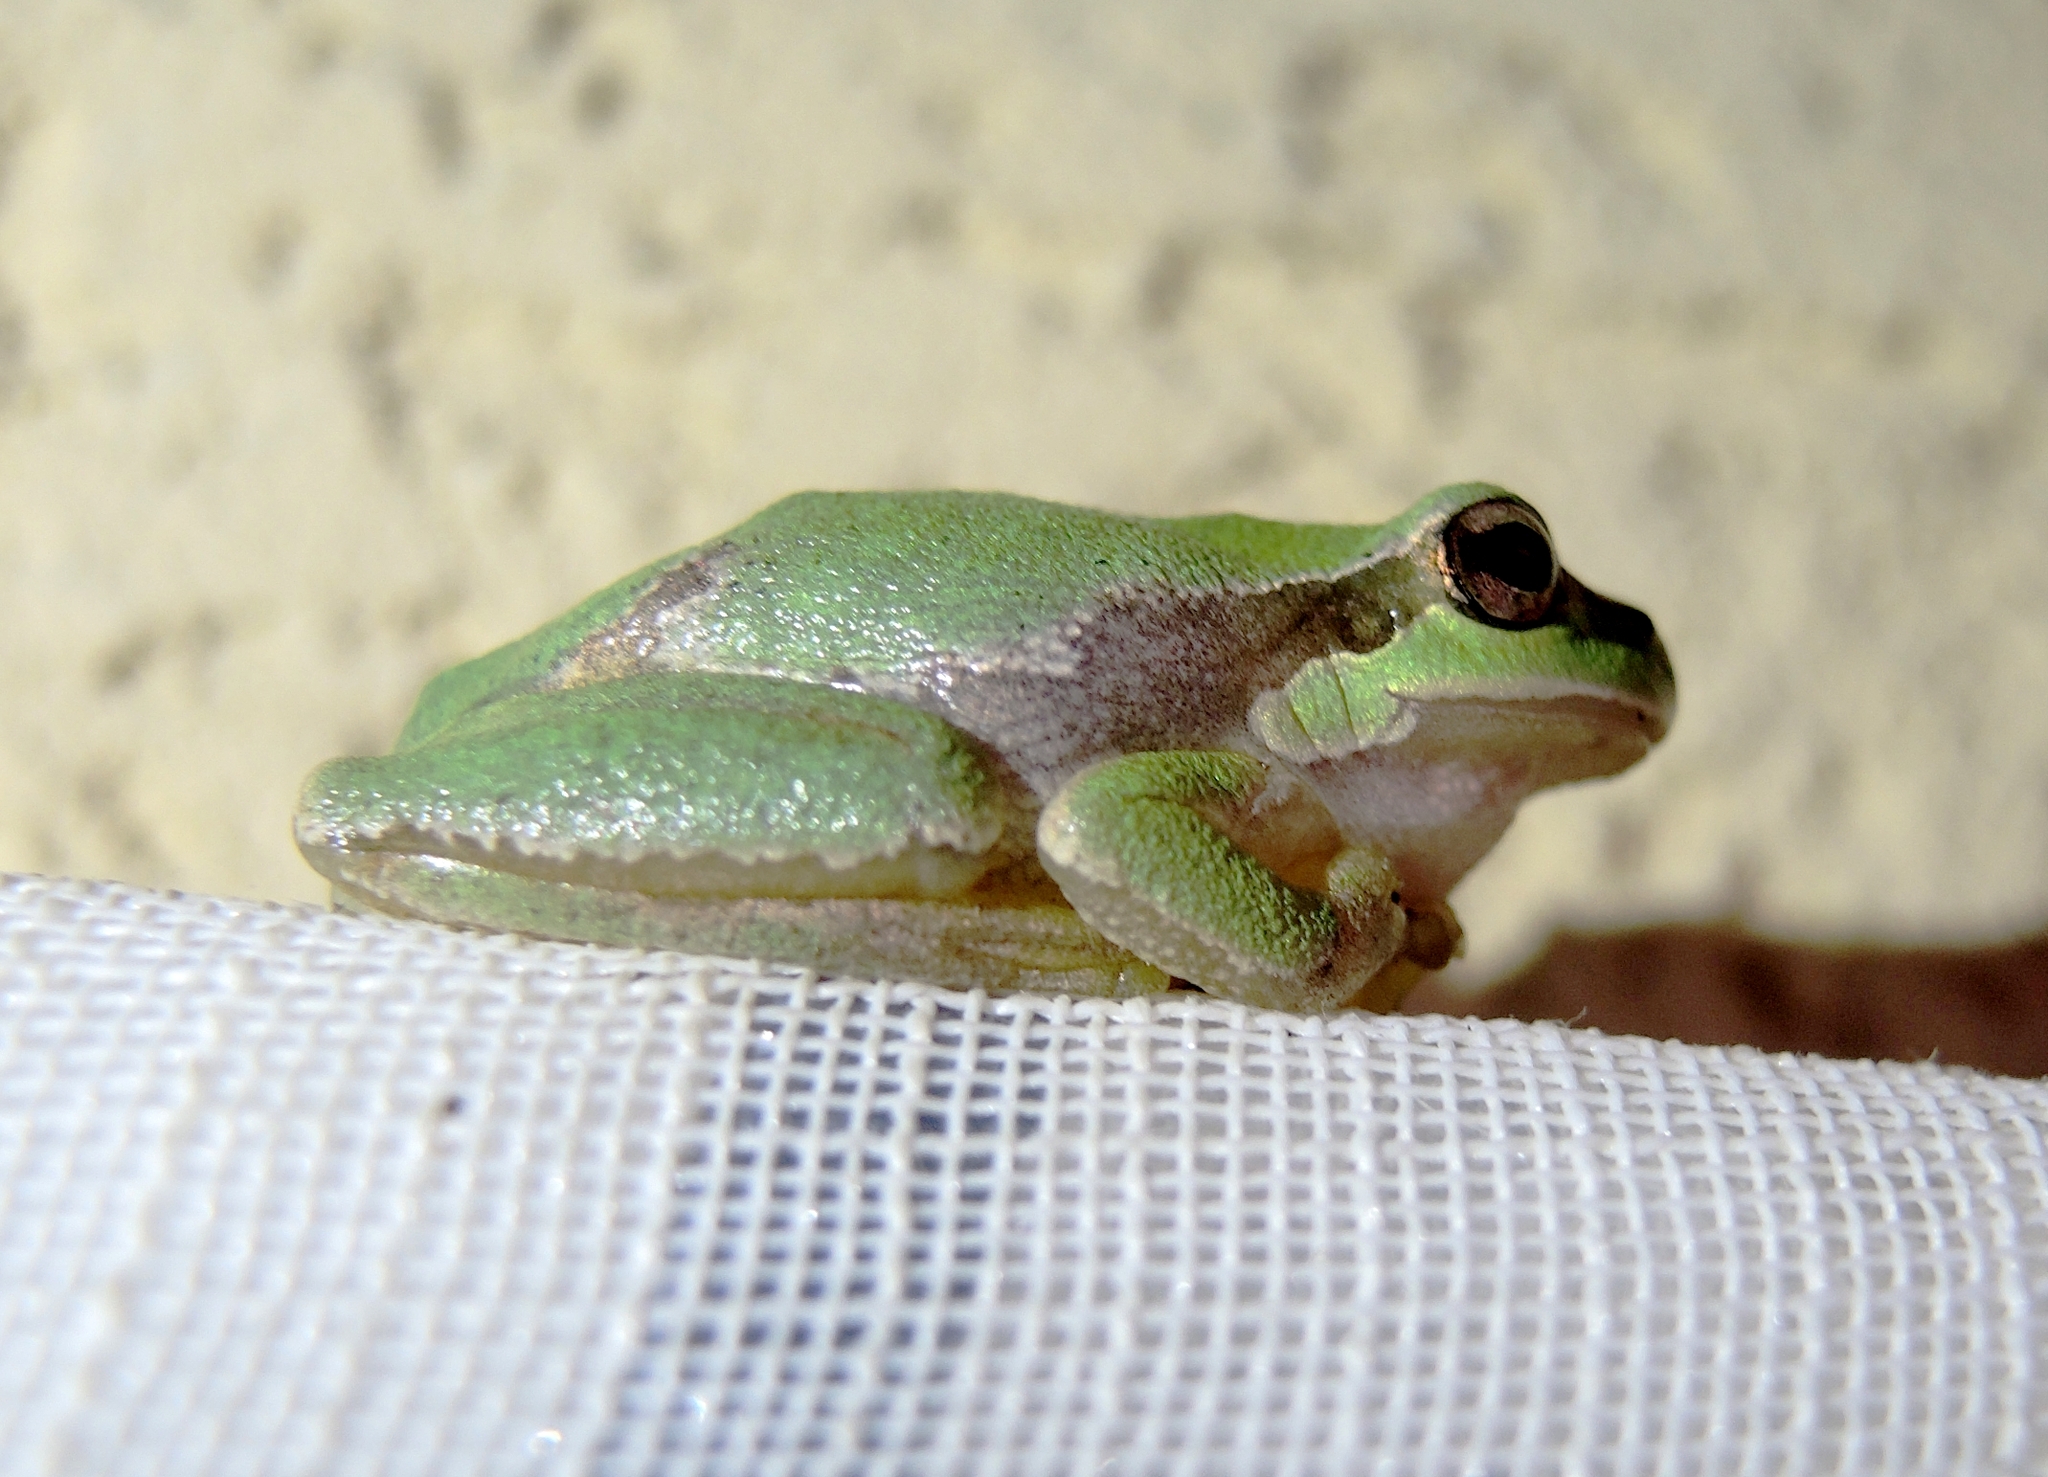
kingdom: Animalia
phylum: Chordata
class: Amphibia
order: Anura
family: Hylidae
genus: Hyla
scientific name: Hyla orientalis
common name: Caucasian treefrog
